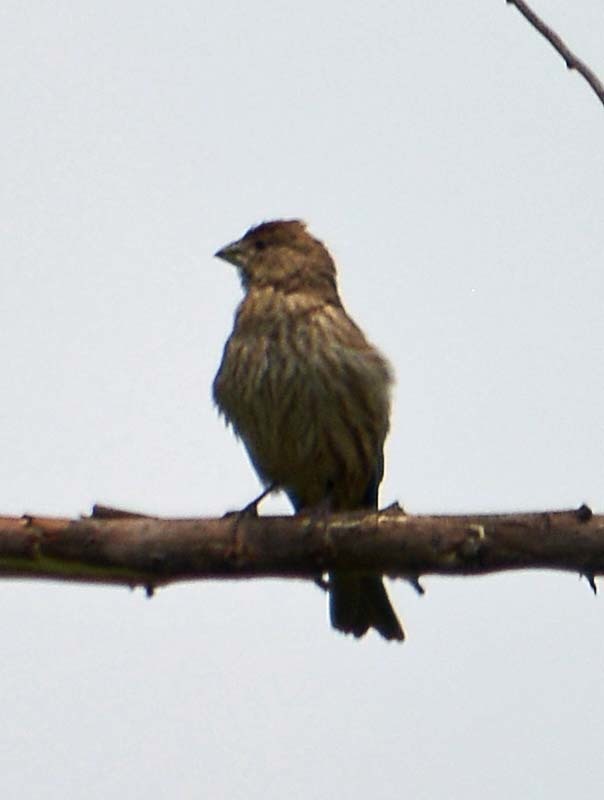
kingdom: Animalia
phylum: Chordata
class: Aves
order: Passeriformes
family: Fringillidae
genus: Haemorhous
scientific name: Haemorhous mexicanus
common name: House finch
